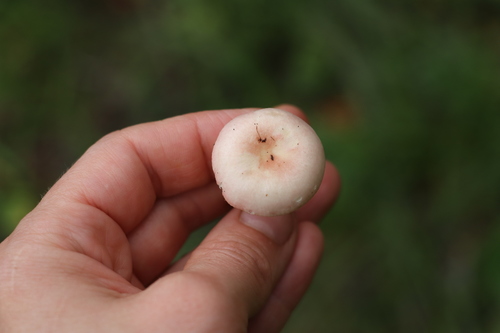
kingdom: Fungi
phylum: Basidiomycota
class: Agaricomycetes
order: Russulales
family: Russulaceae
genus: Russula
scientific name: Russula betularum
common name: Birch brittlegill
